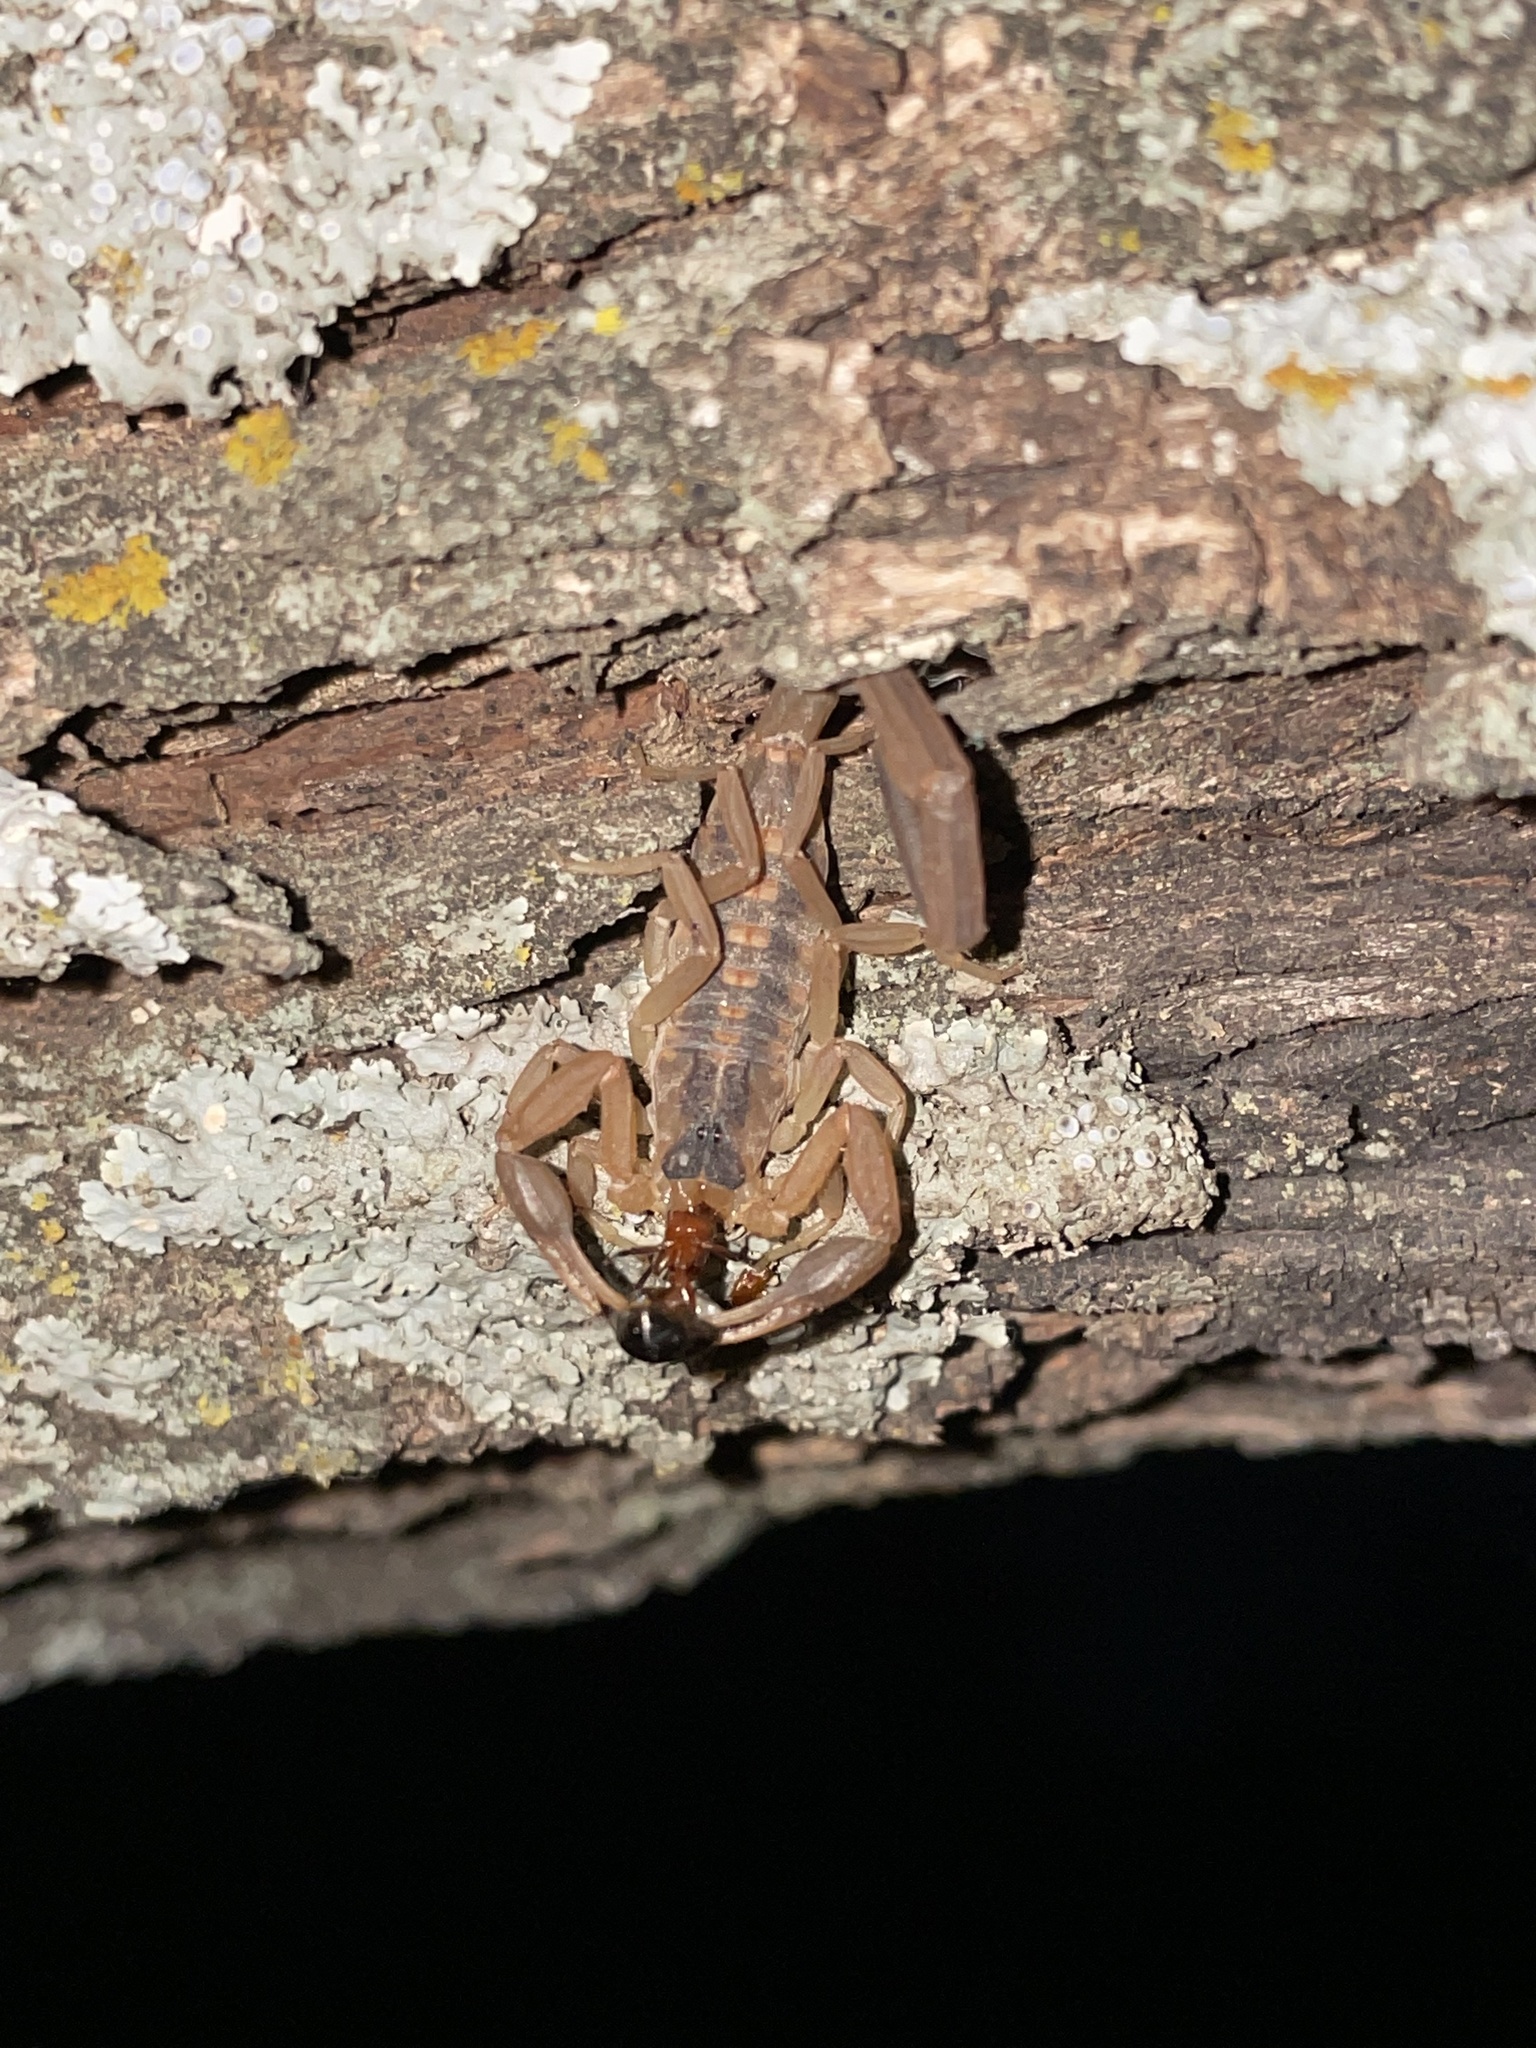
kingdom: Animalia
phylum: Arthropoda
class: Arachnida
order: Scorpiones
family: Buthidae
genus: Centruroides
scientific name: Centruroides vittatus
